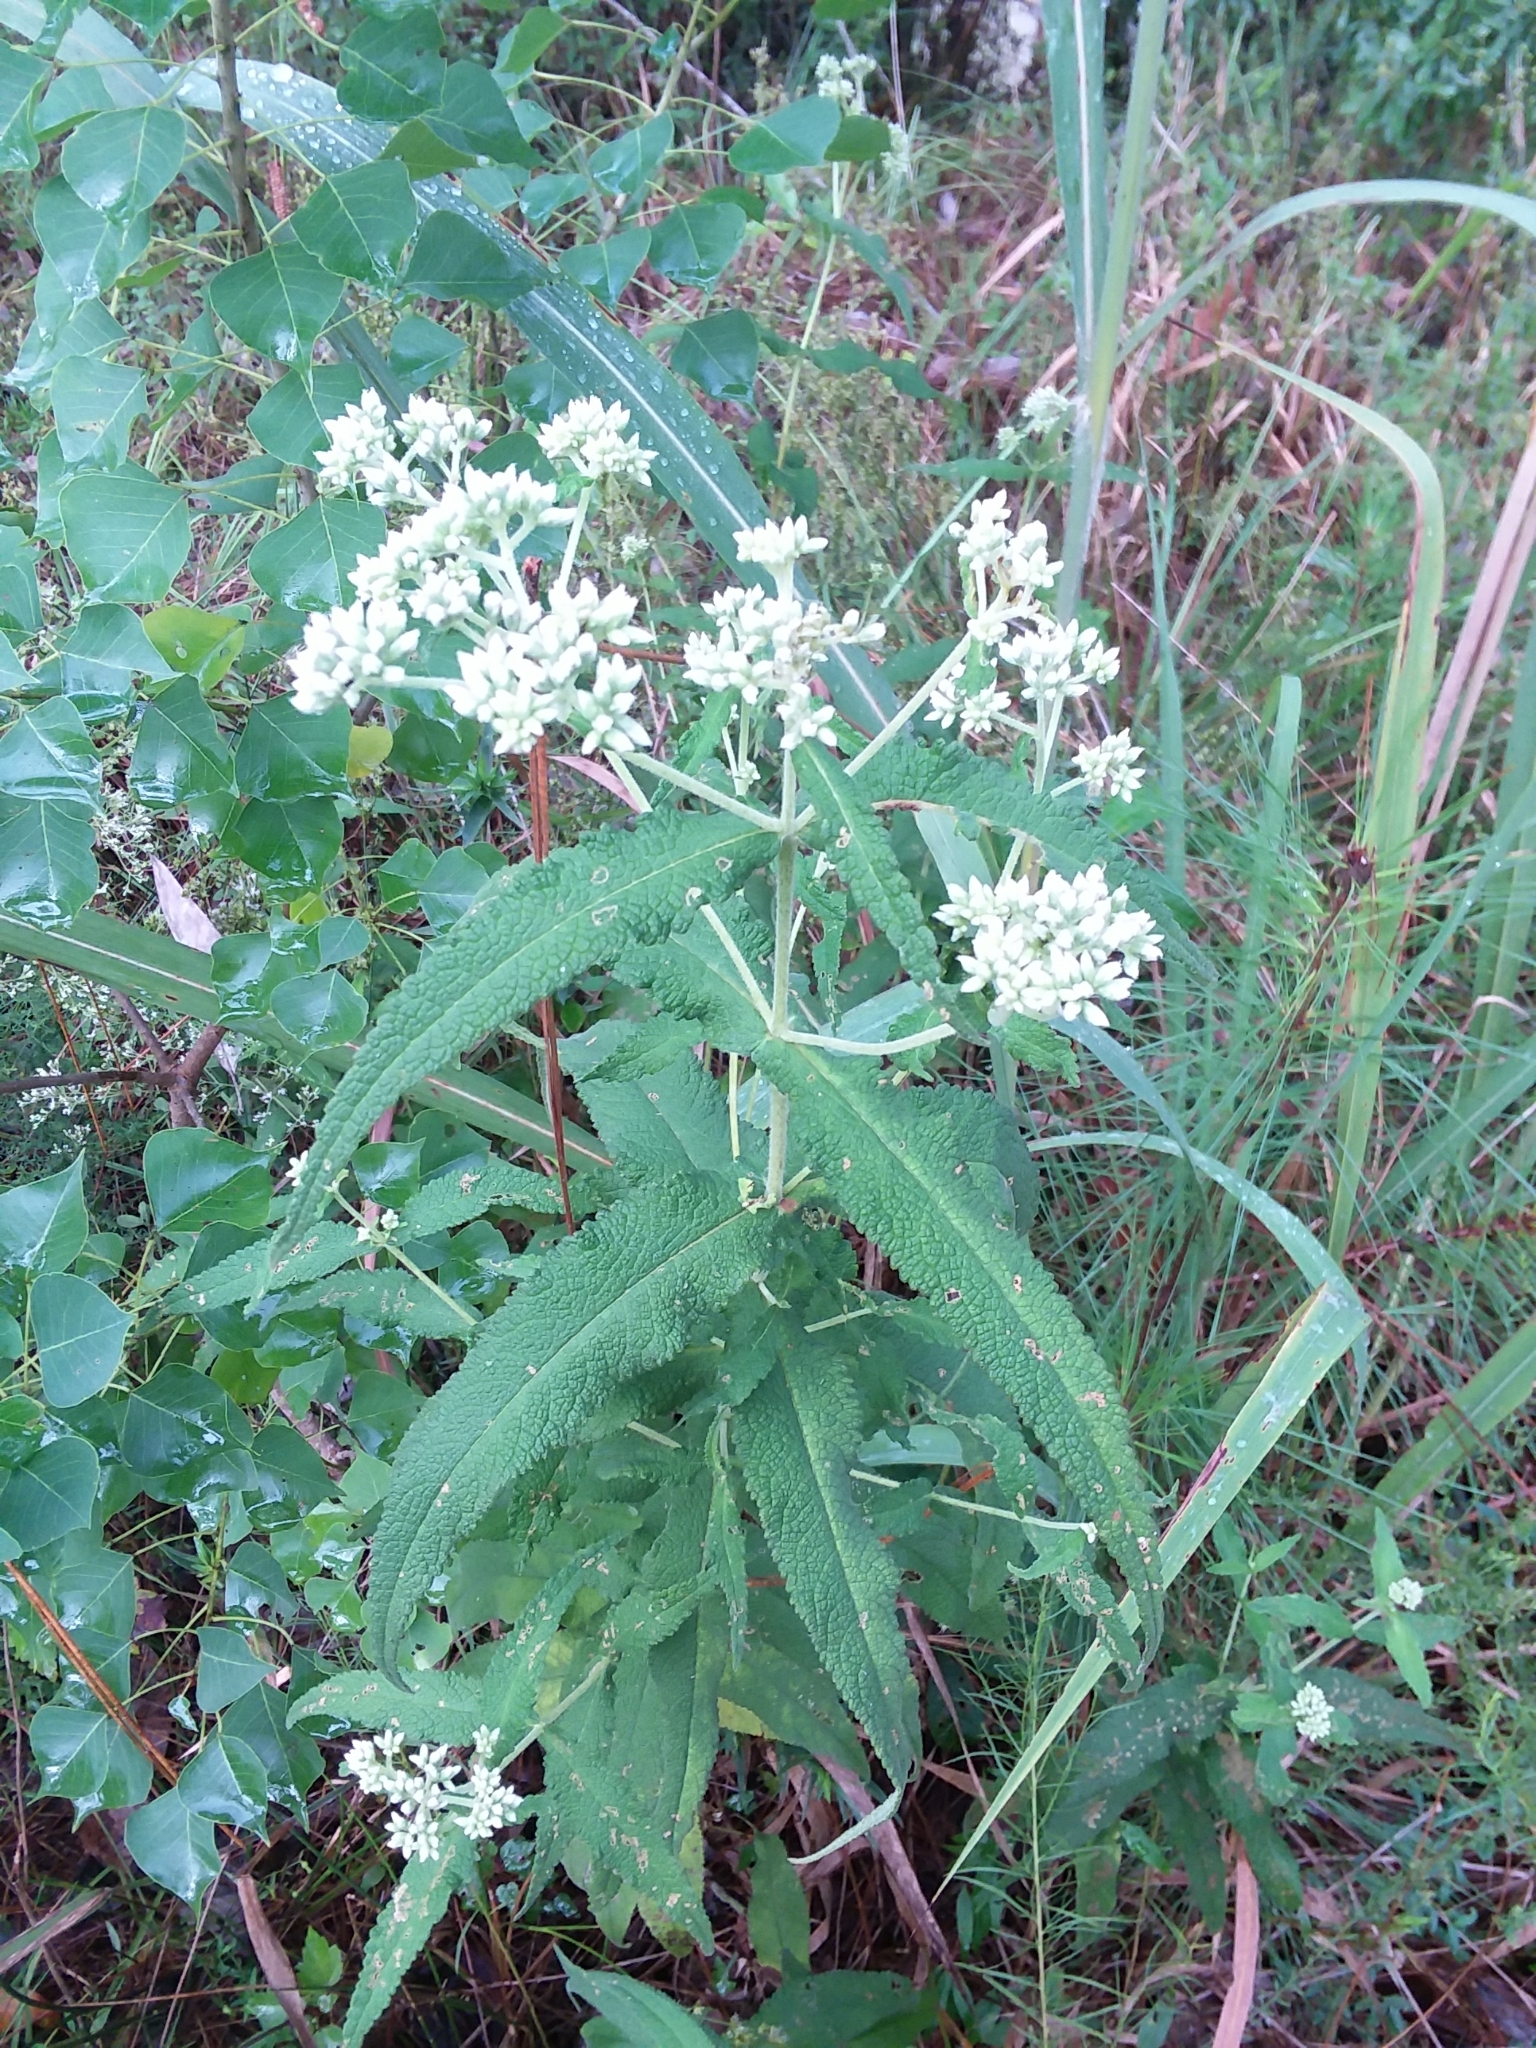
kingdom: Plantae
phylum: Tracheophyta
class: Magnoliopsida
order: Asterales
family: Asteraceae
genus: Eupatorium
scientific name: Eupatorium perfoliatum
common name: Boneset
